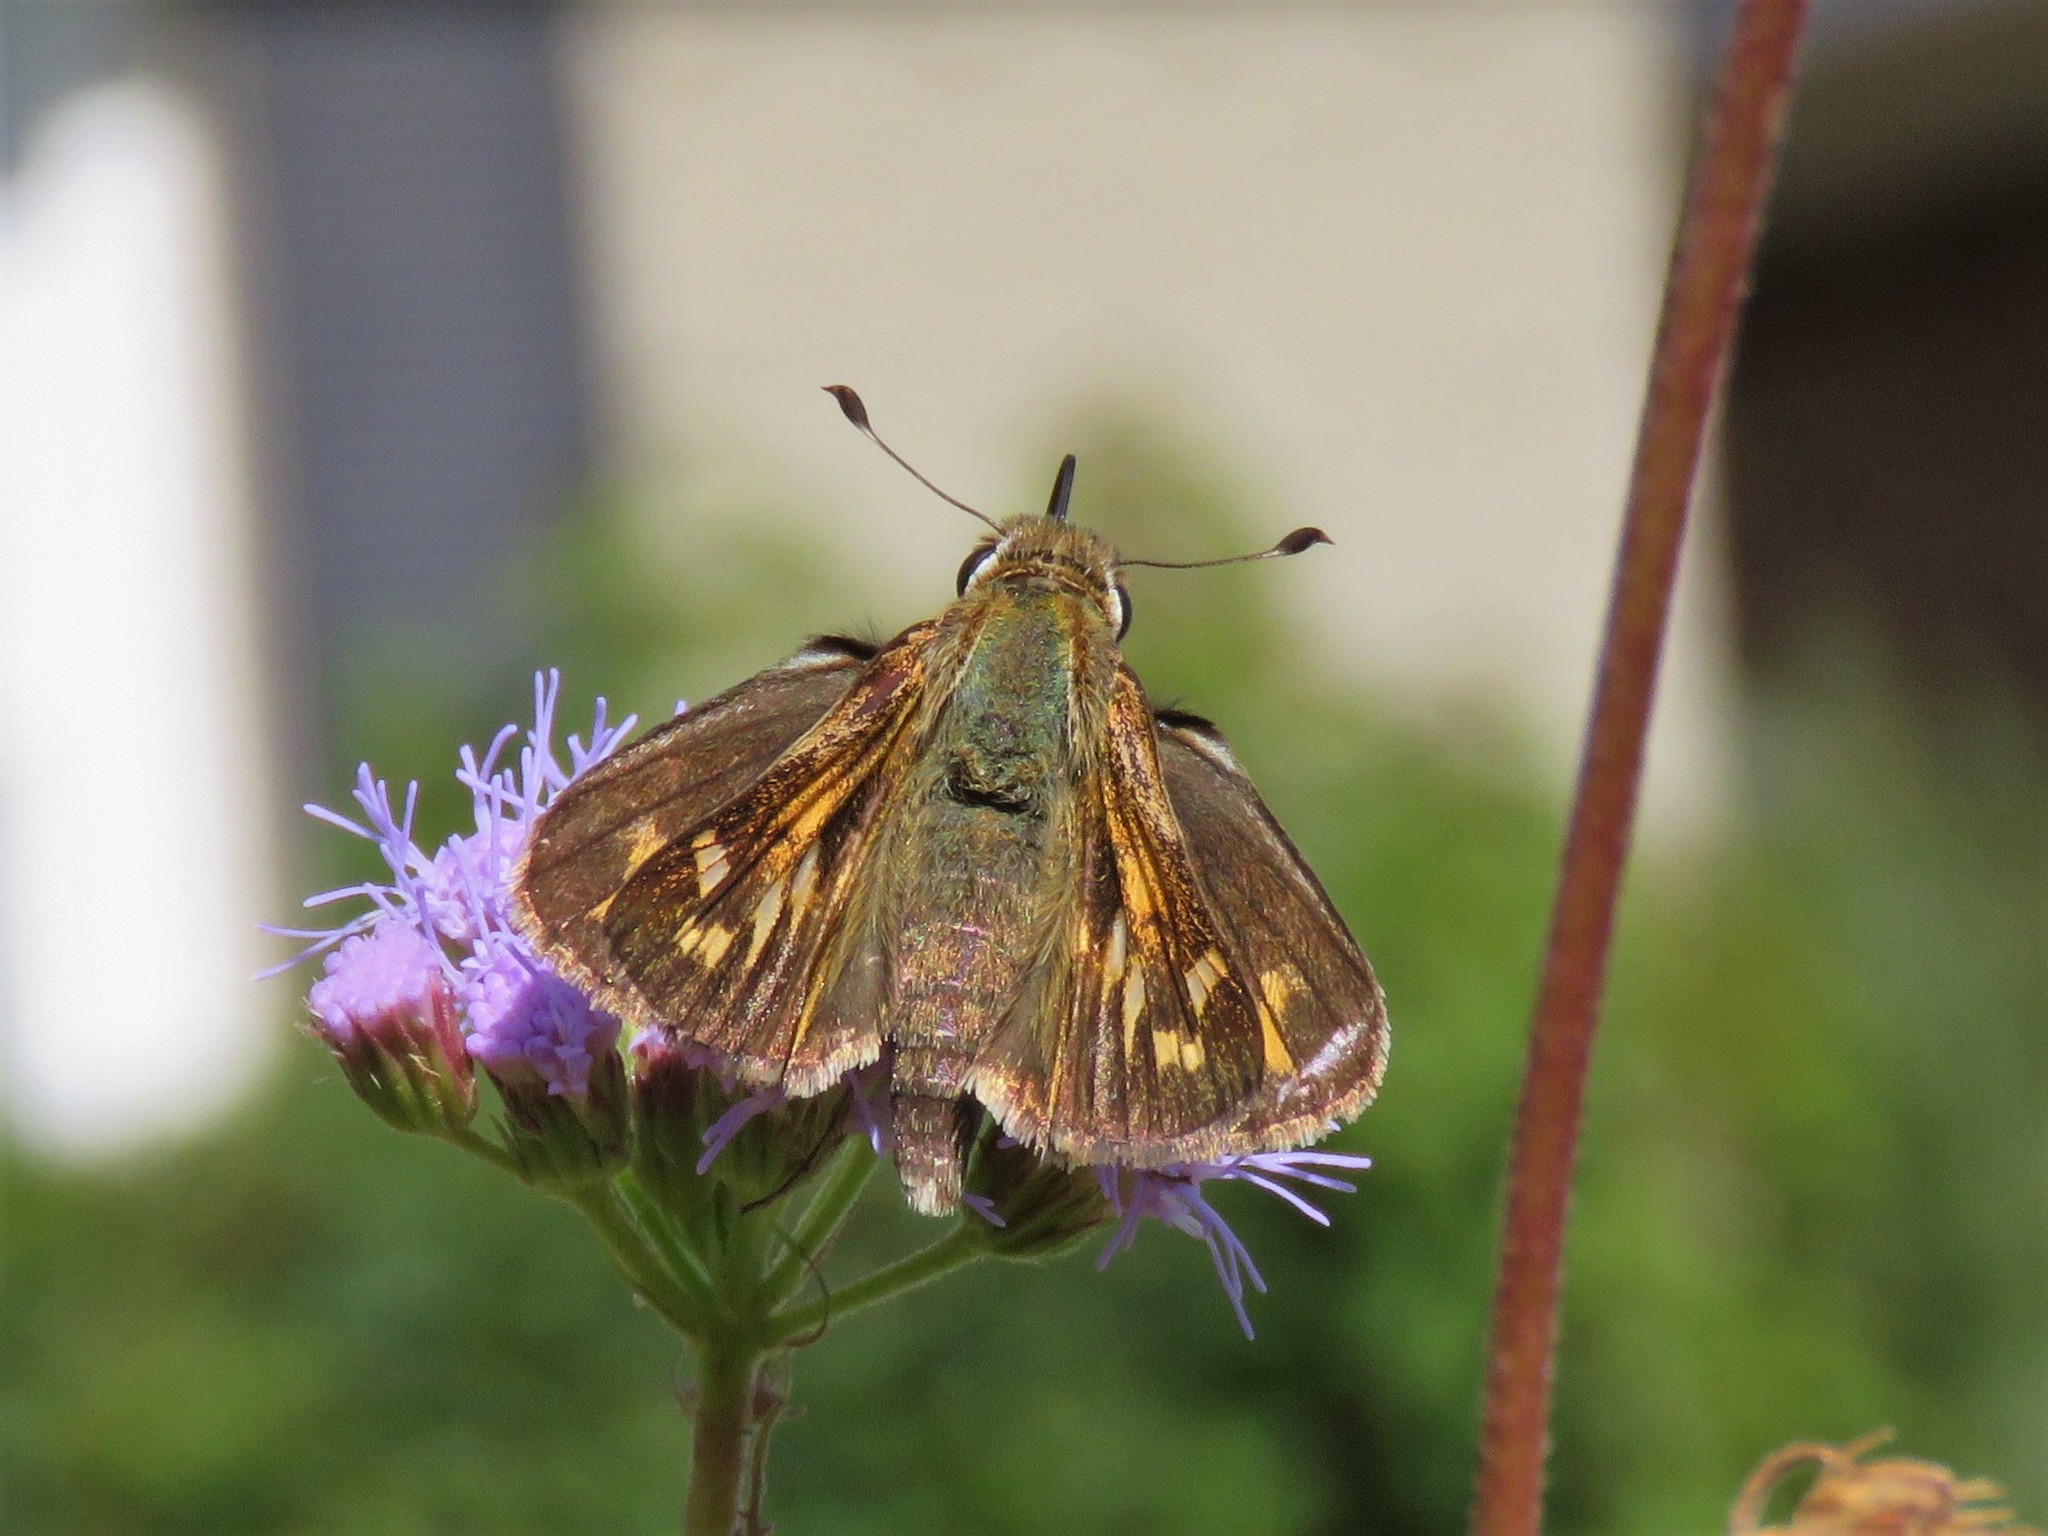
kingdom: Animalia
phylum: Arthropoda
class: Insecta
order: Lepidoptera
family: Hesperiidae
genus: Atalopedes
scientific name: Atalopedes
